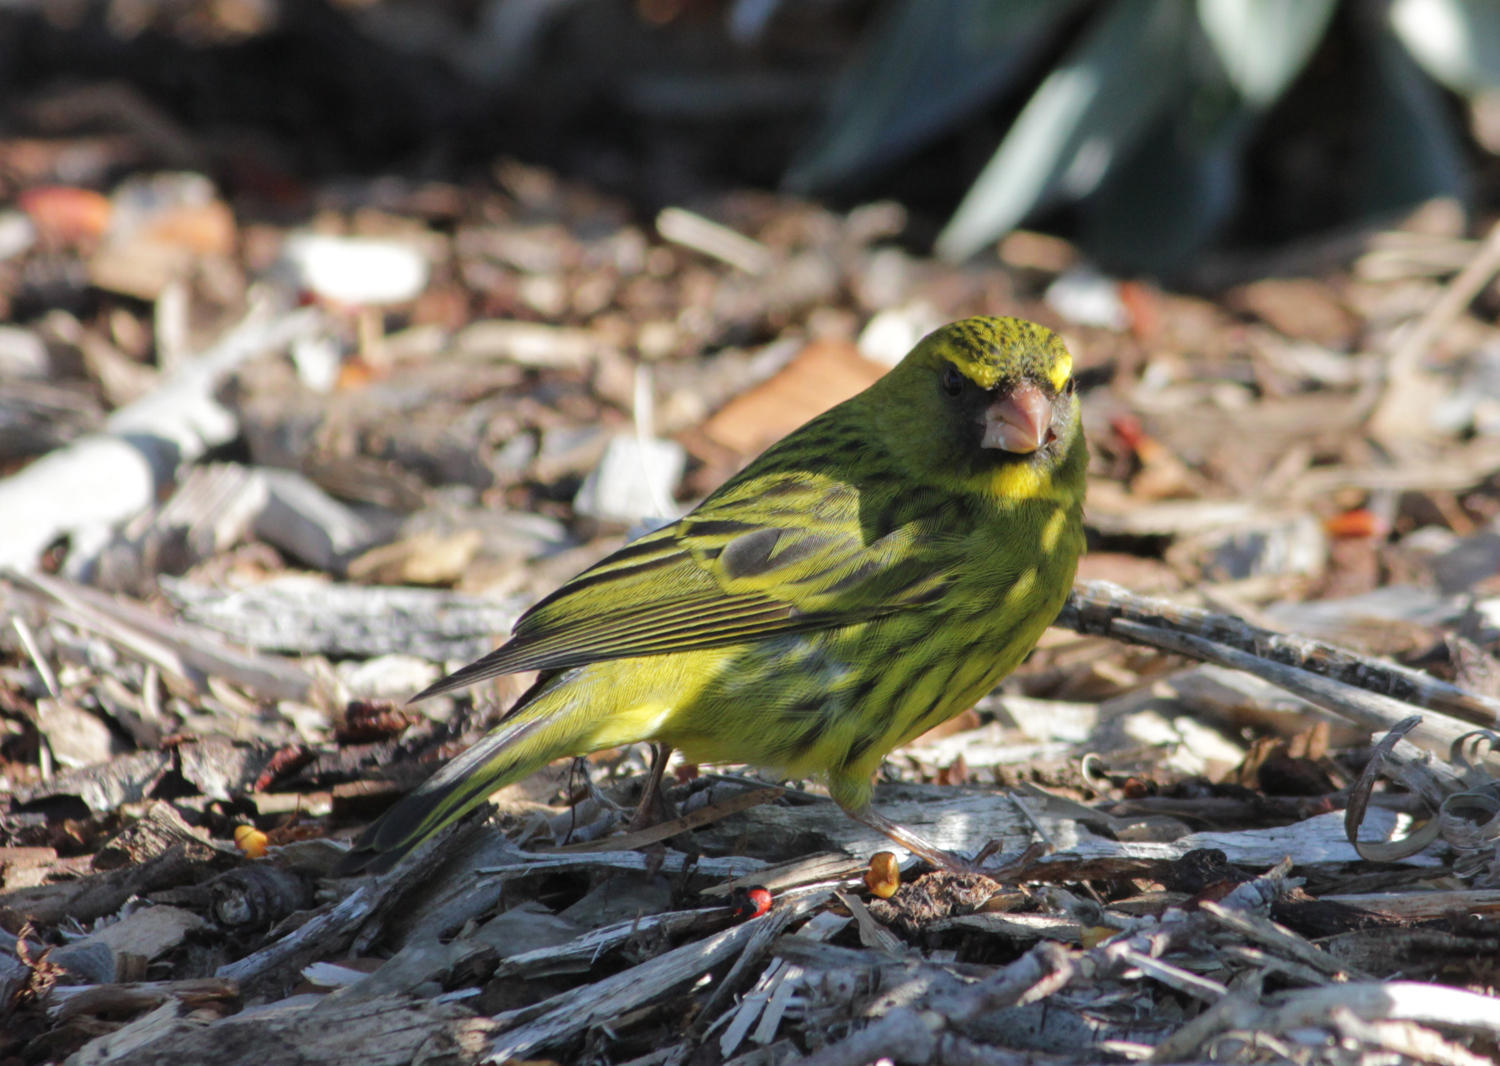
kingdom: Animalia
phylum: Chordata
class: Aves
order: Passeriformes
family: Fringillidae
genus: Crithagra
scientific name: Crithagra scotops
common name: Forest canary
